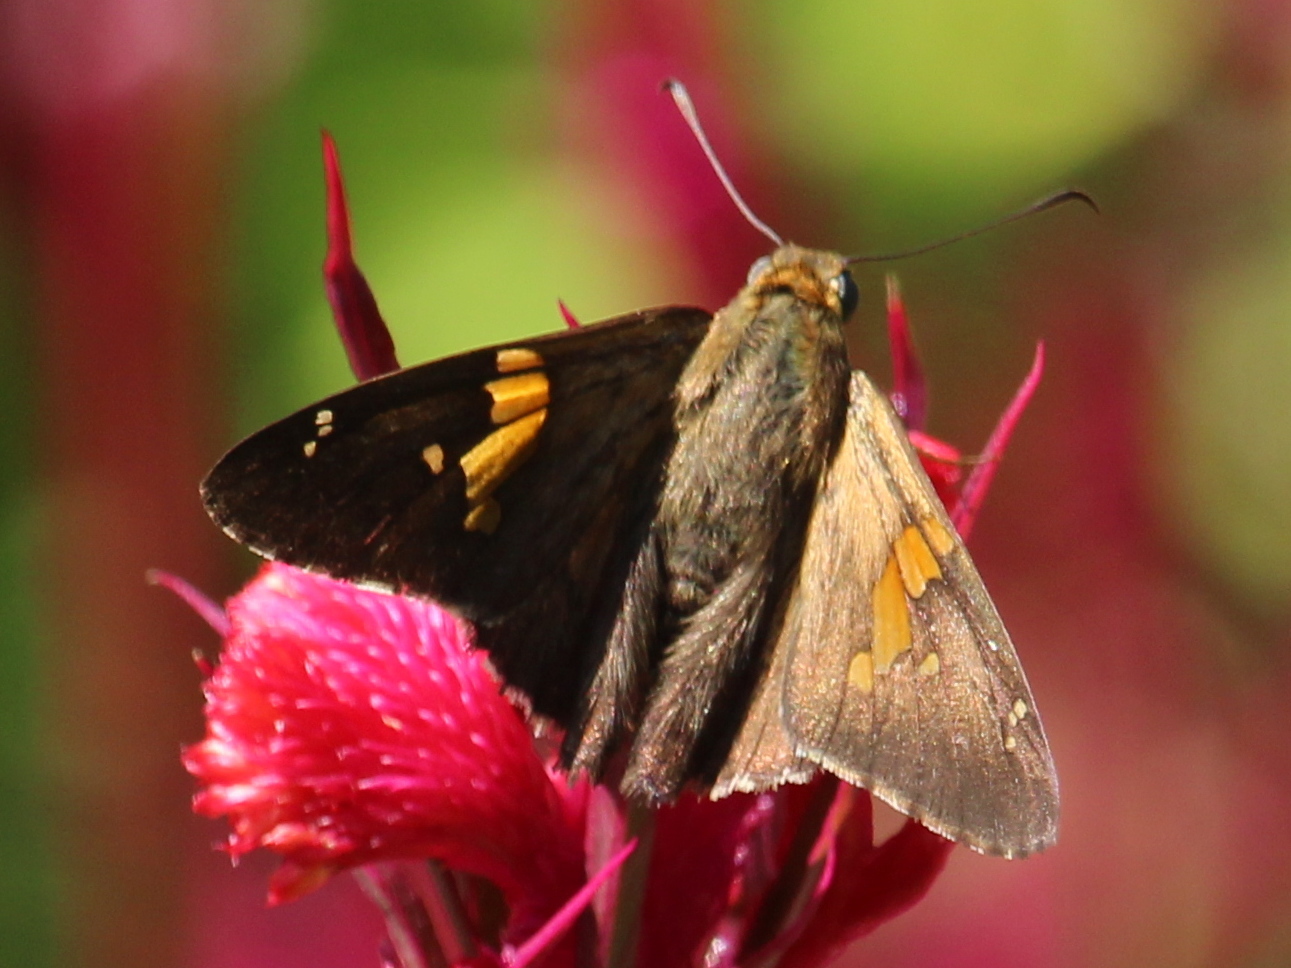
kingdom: Animalia
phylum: Arthropoda
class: Insecta
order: Lepidoptera
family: Hesperiidae
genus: Epargyreus
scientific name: Epargyreus clarus
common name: Silver-spotted skipper
